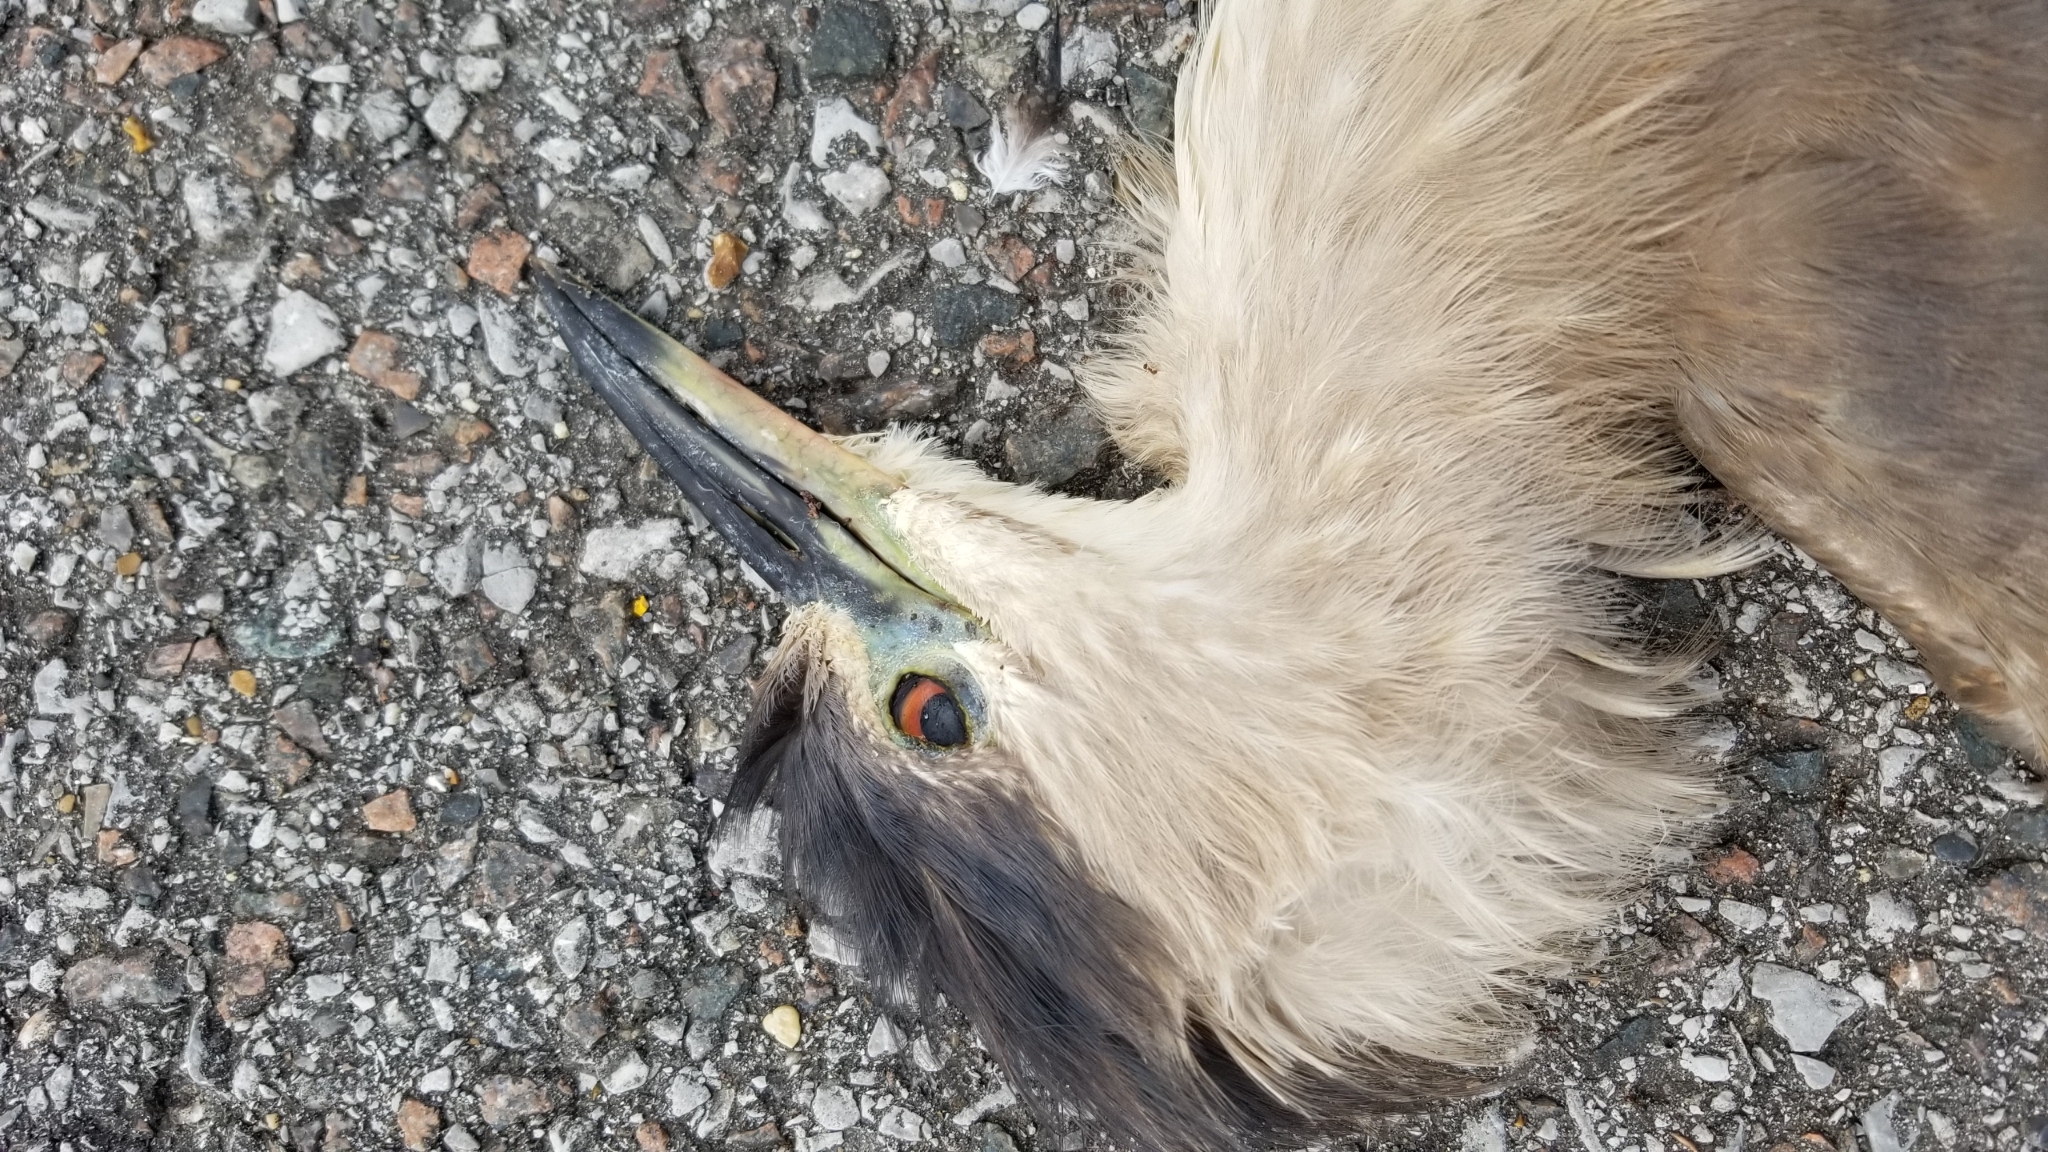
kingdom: Animalia
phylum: Chordata
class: Aves
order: Pelecaniformes
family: Ardeidae
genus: Nycticorax
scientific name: Nycticorax nycticorax
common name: Black-crowned night heron
